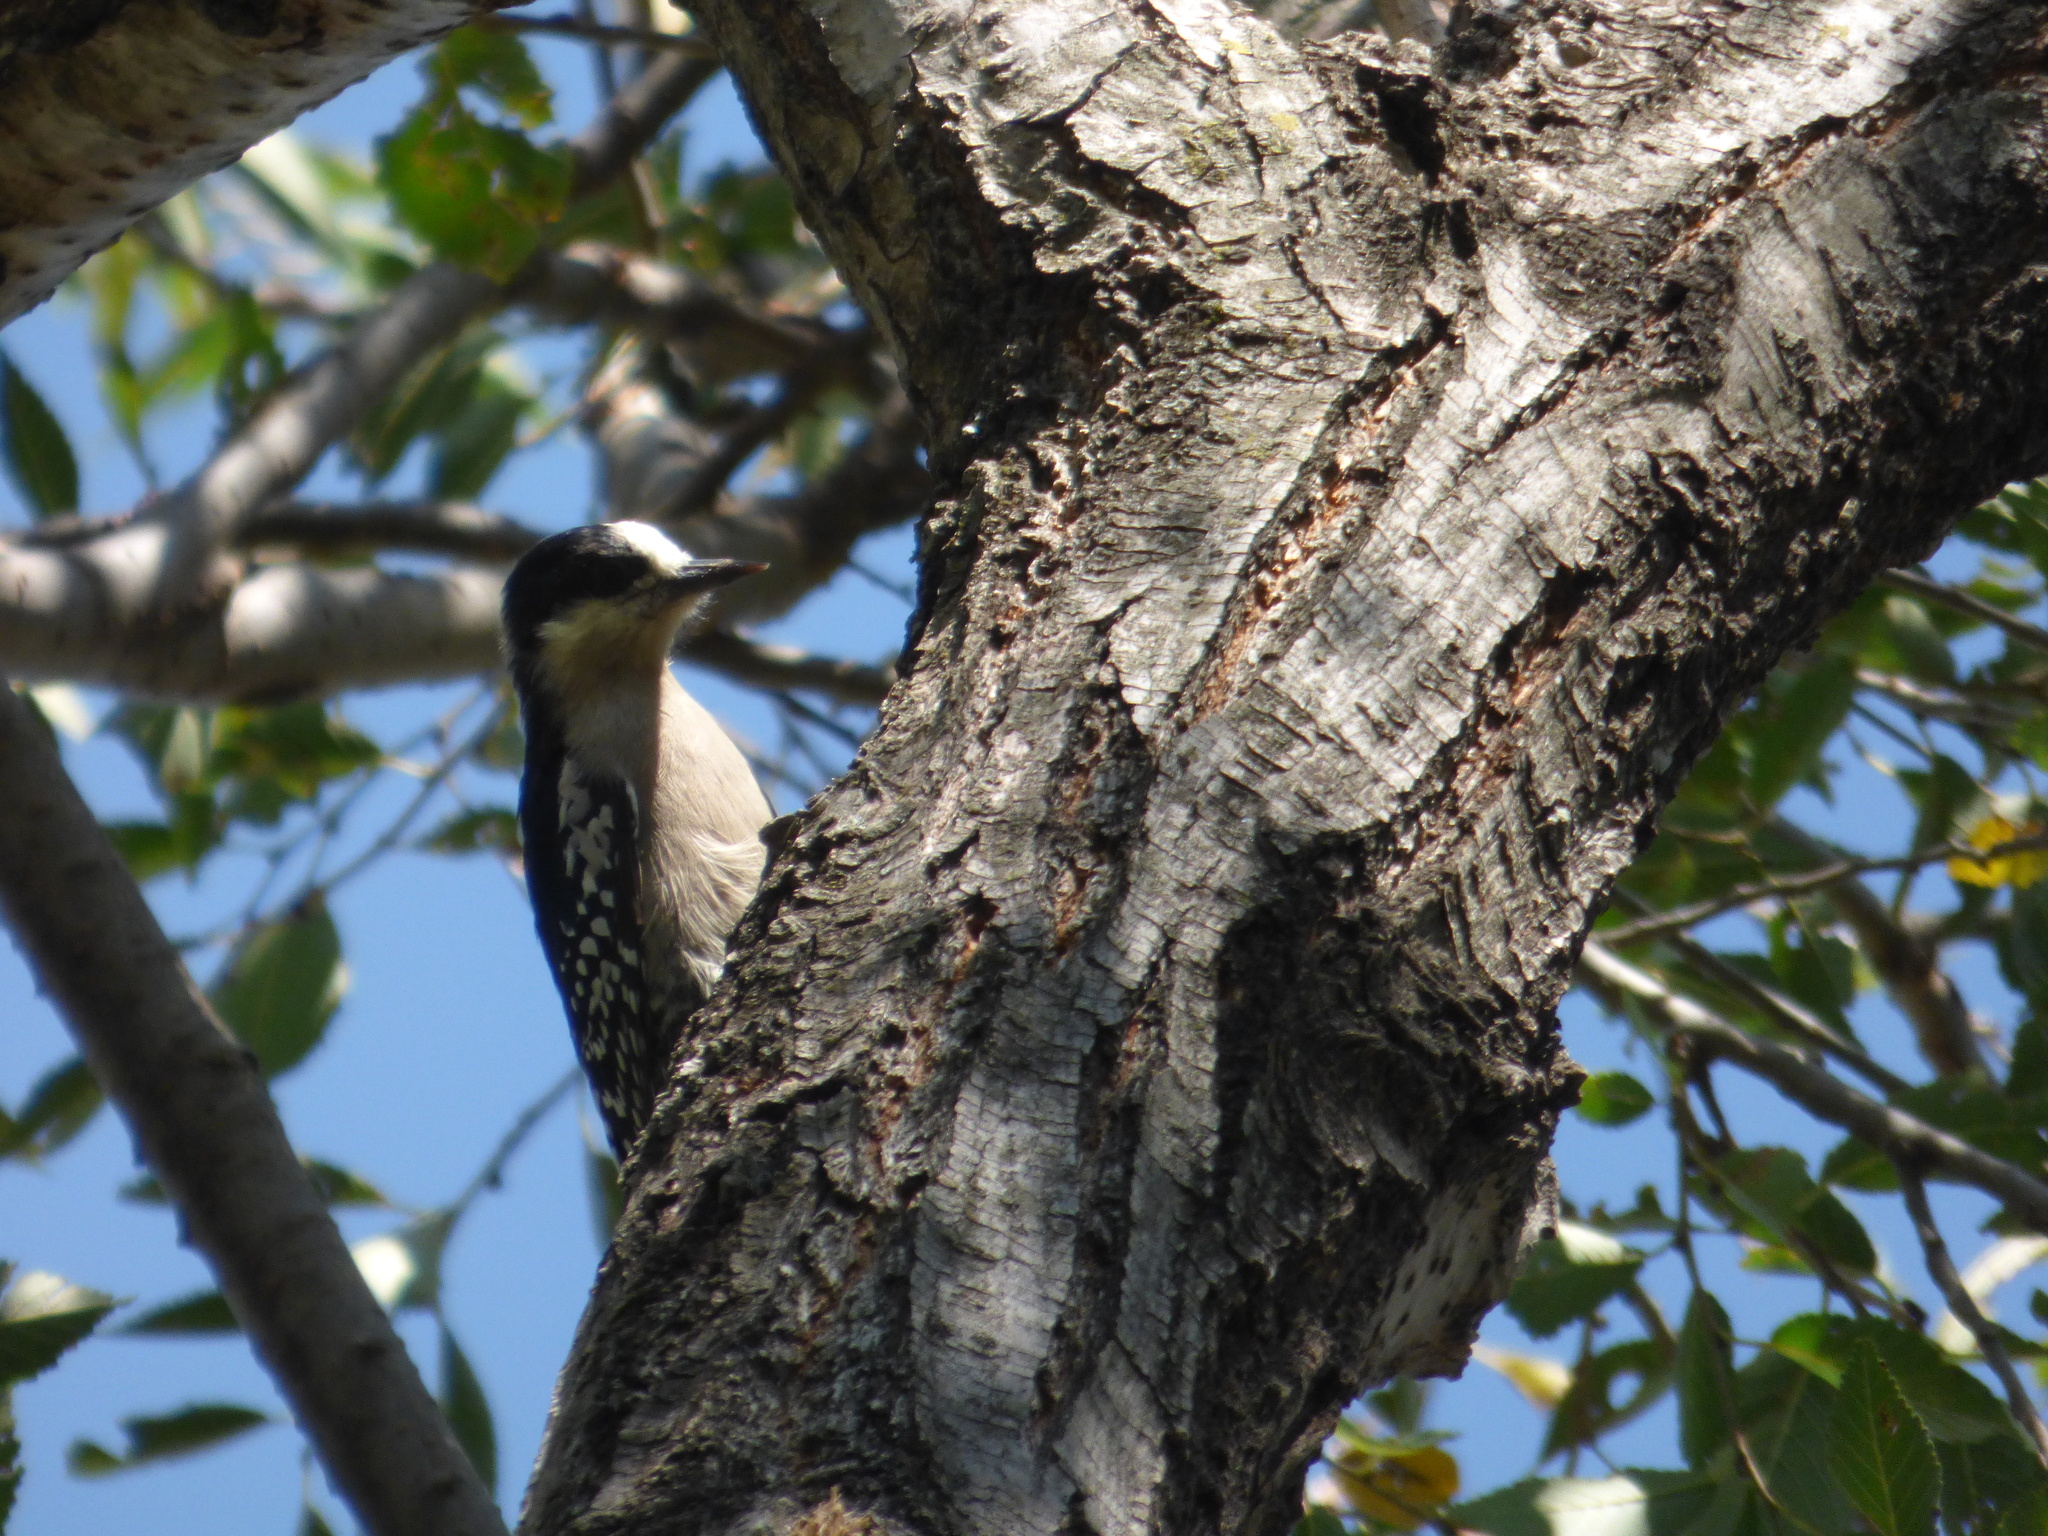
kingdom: Animalia
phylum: Chordata
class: Aves
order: Piciformes
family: Picidae
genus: Melanerpes
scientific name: Melanerpes cactorum
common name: White-fronted woodpecker
